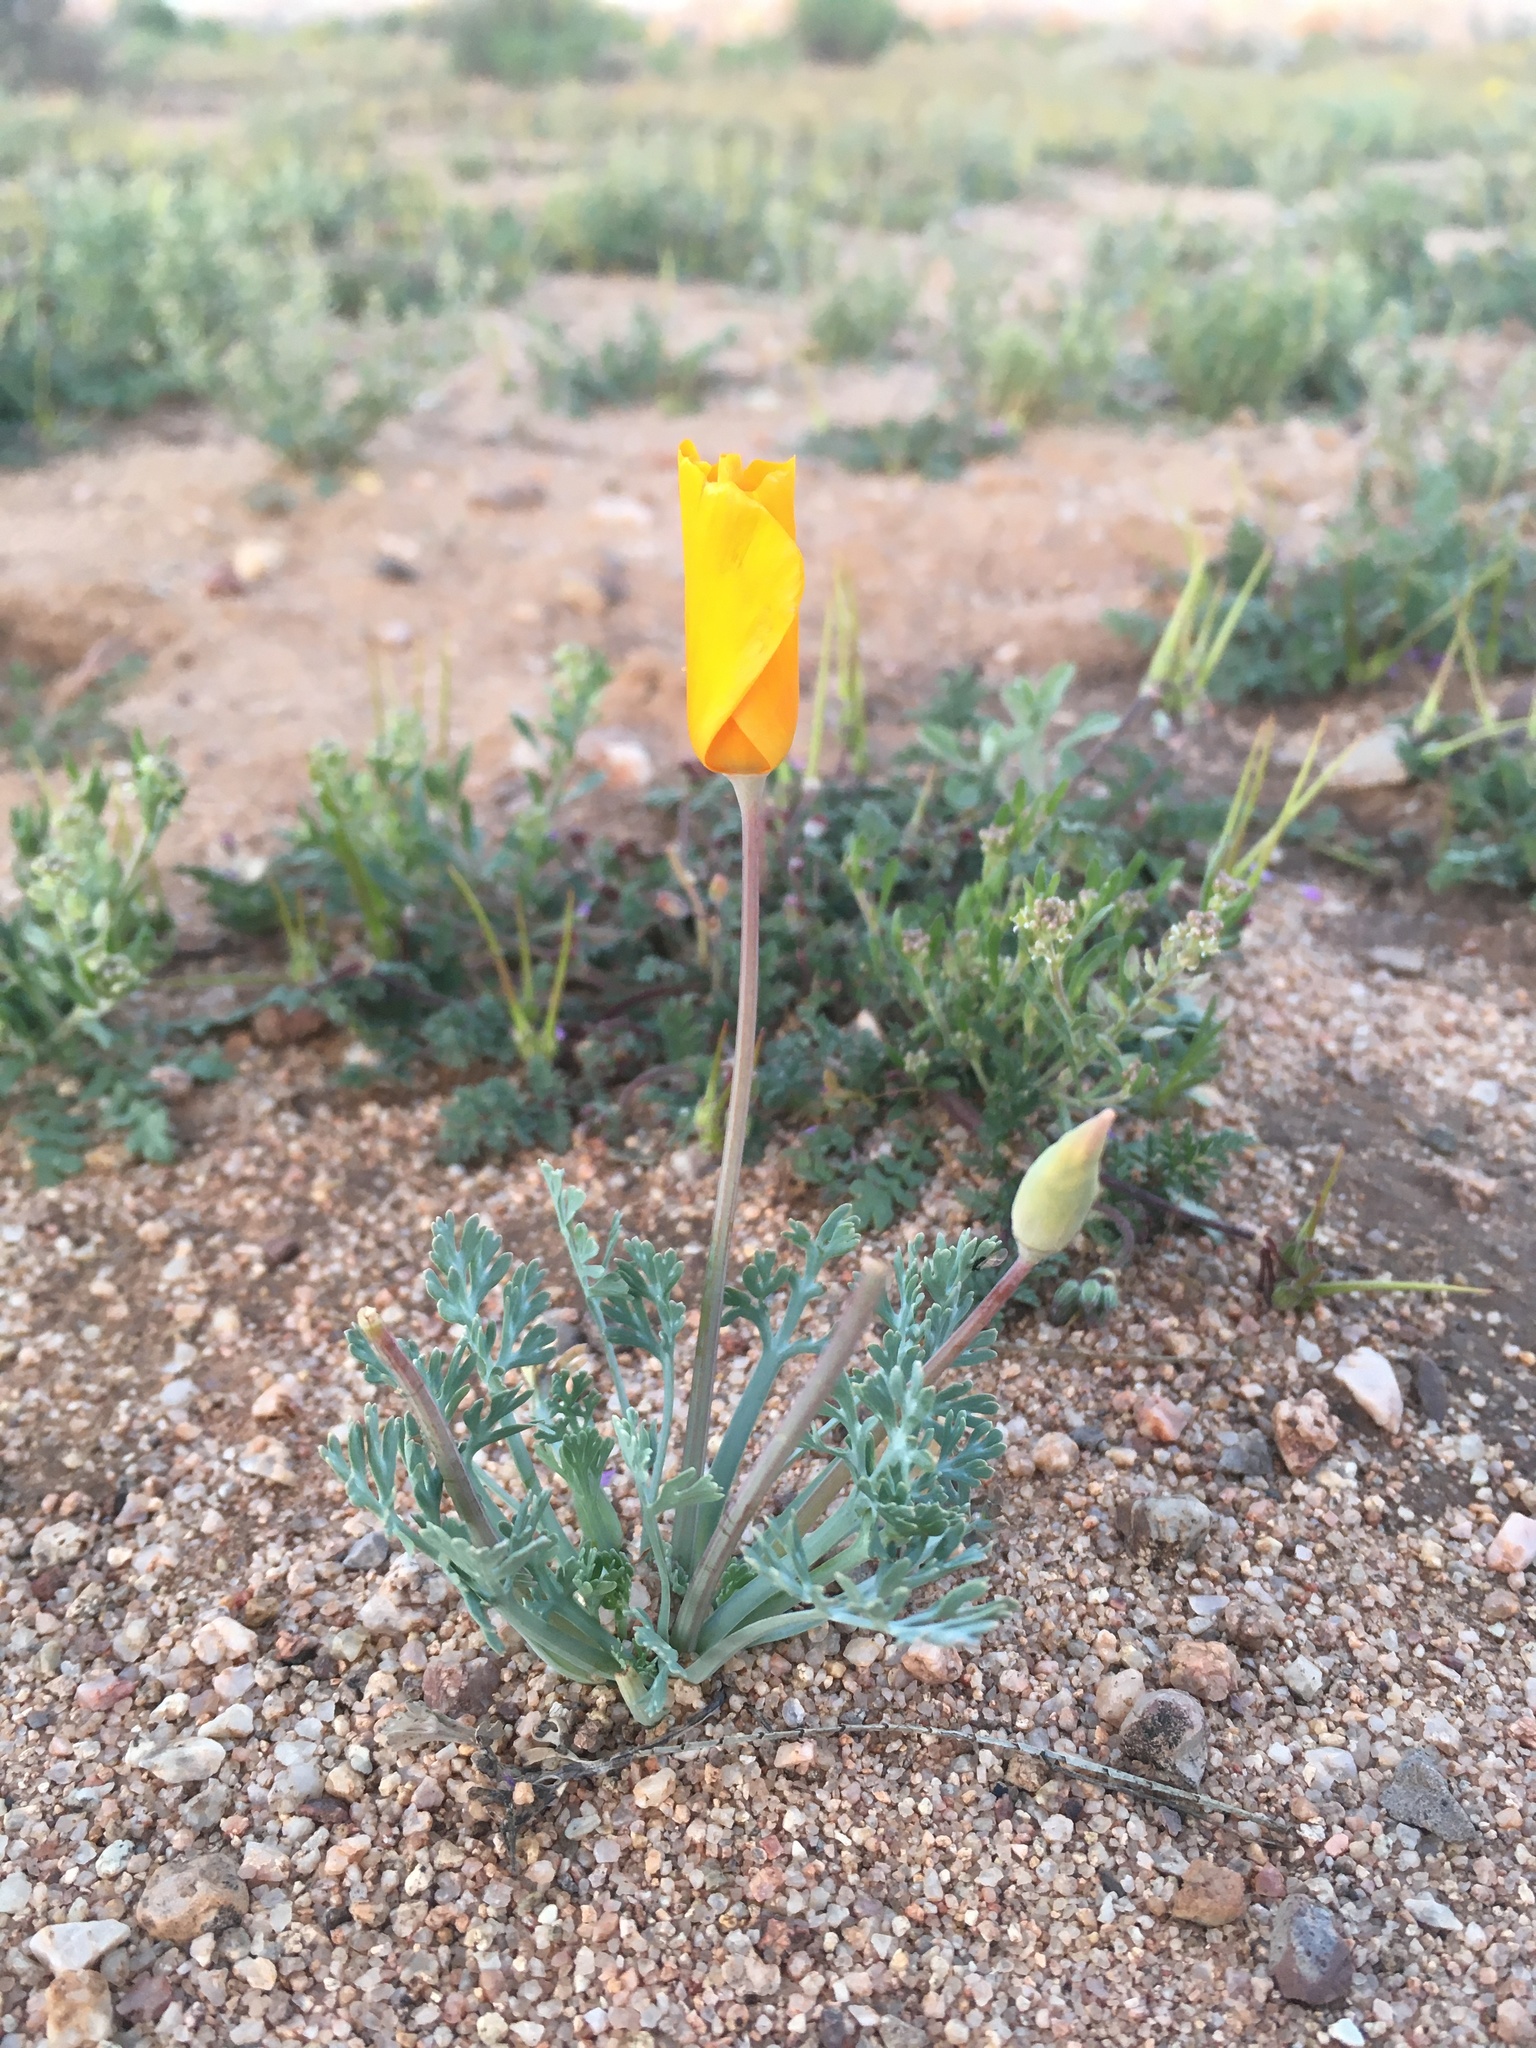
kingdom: Plantae
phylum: Tracheophyta
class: Magnoliopsida
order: Ranunculales
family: Papaveraceae
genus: Eschscholzia
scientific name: Eschscholzia californica
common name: California poppy
